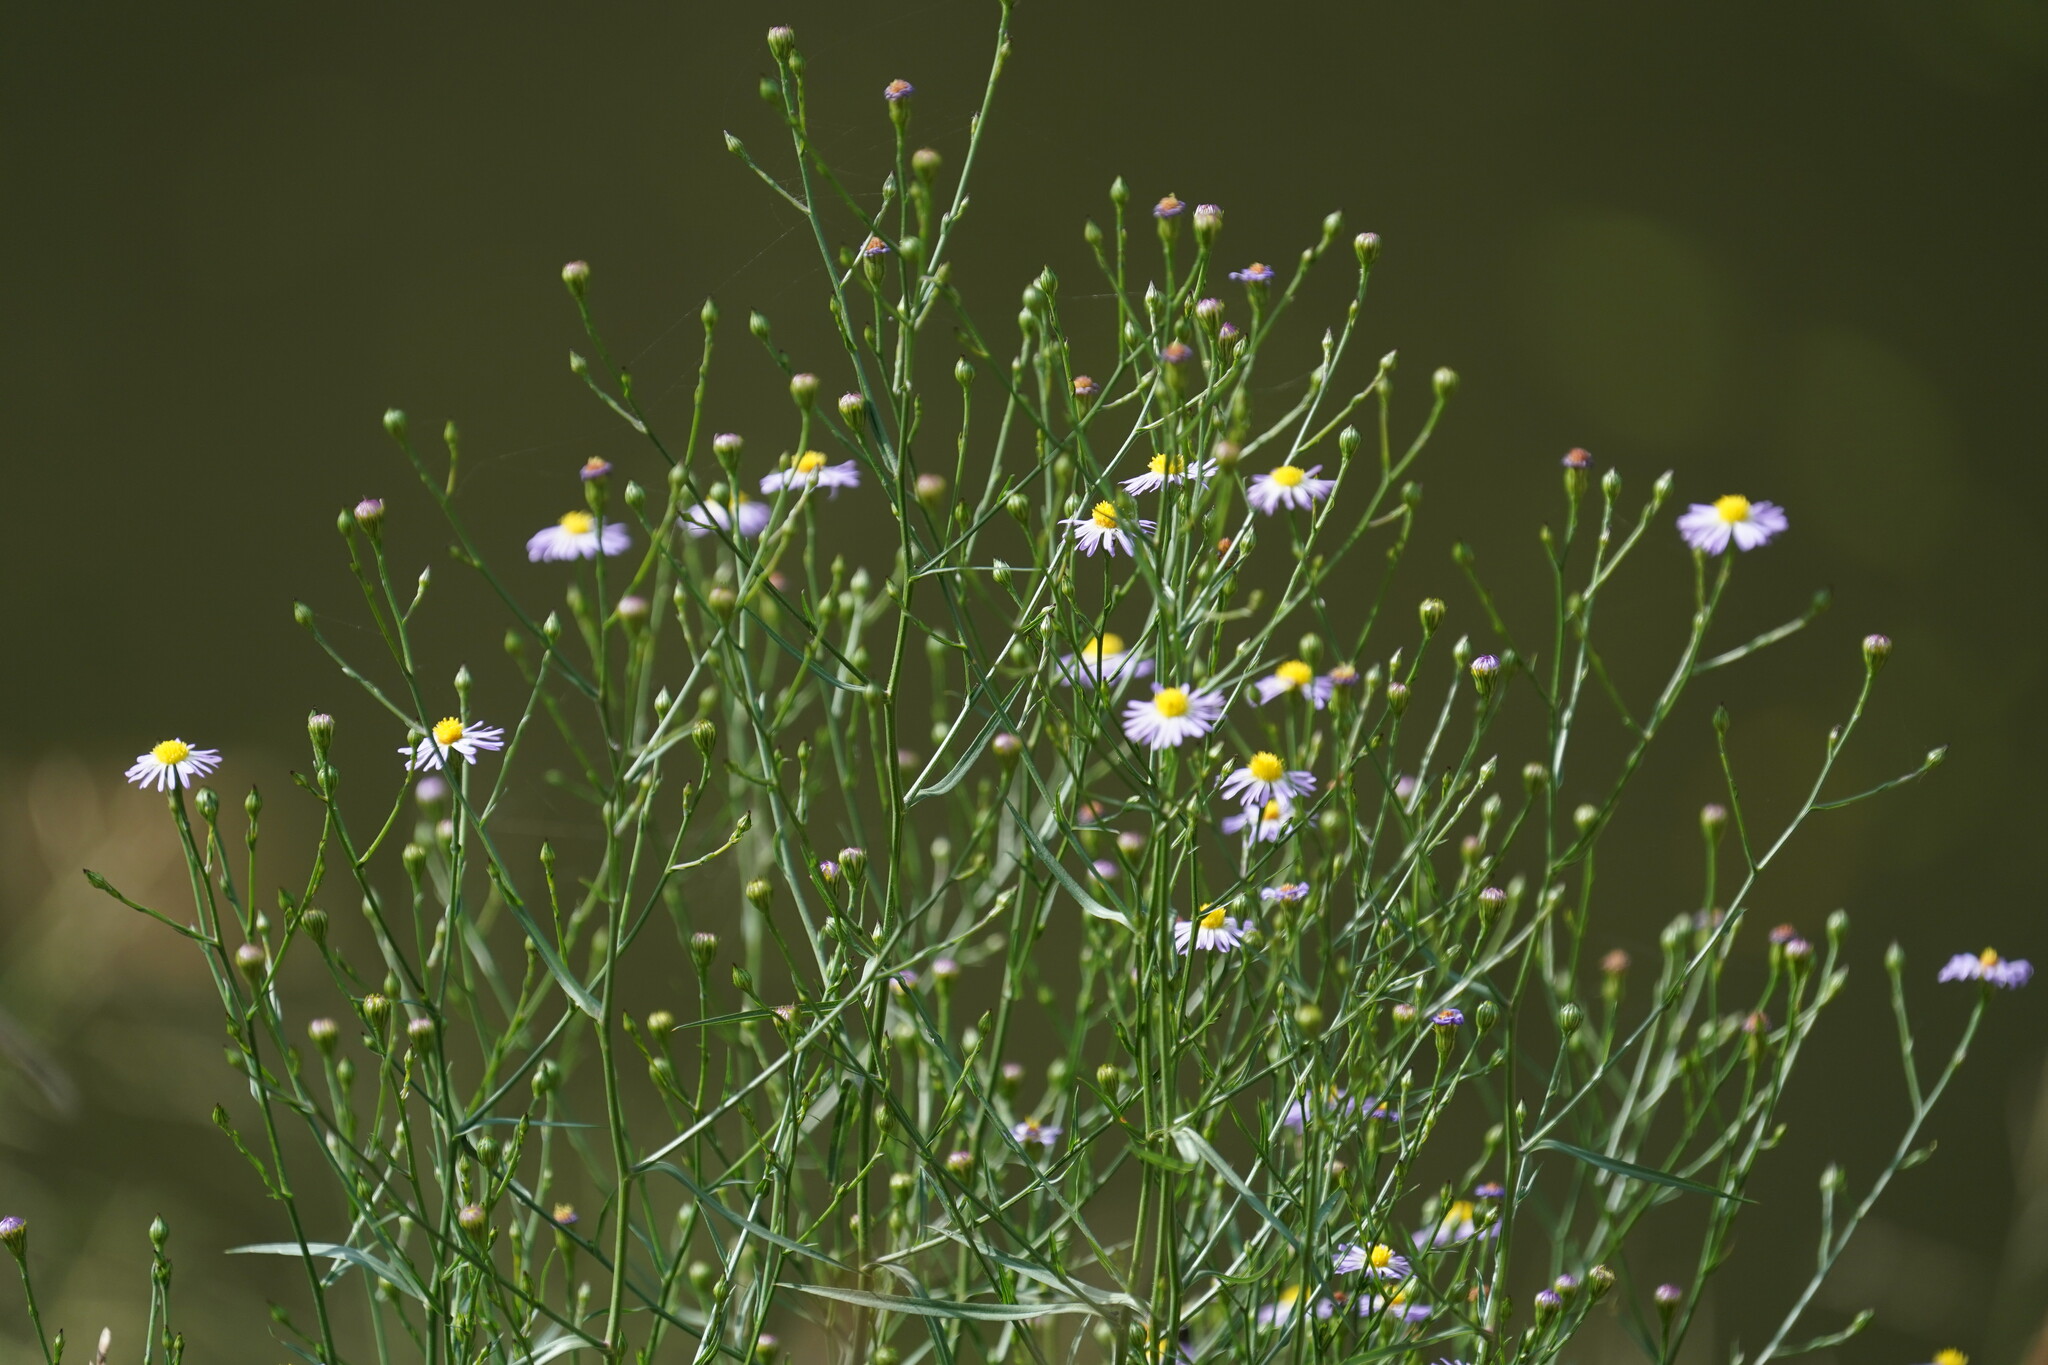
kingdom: Plantae
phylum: Tracheophyta
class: Magnoliopsida
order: Asterales
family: Asteraceae
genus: Symphyotrichum
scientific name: Symphyotrichum divaricatum
